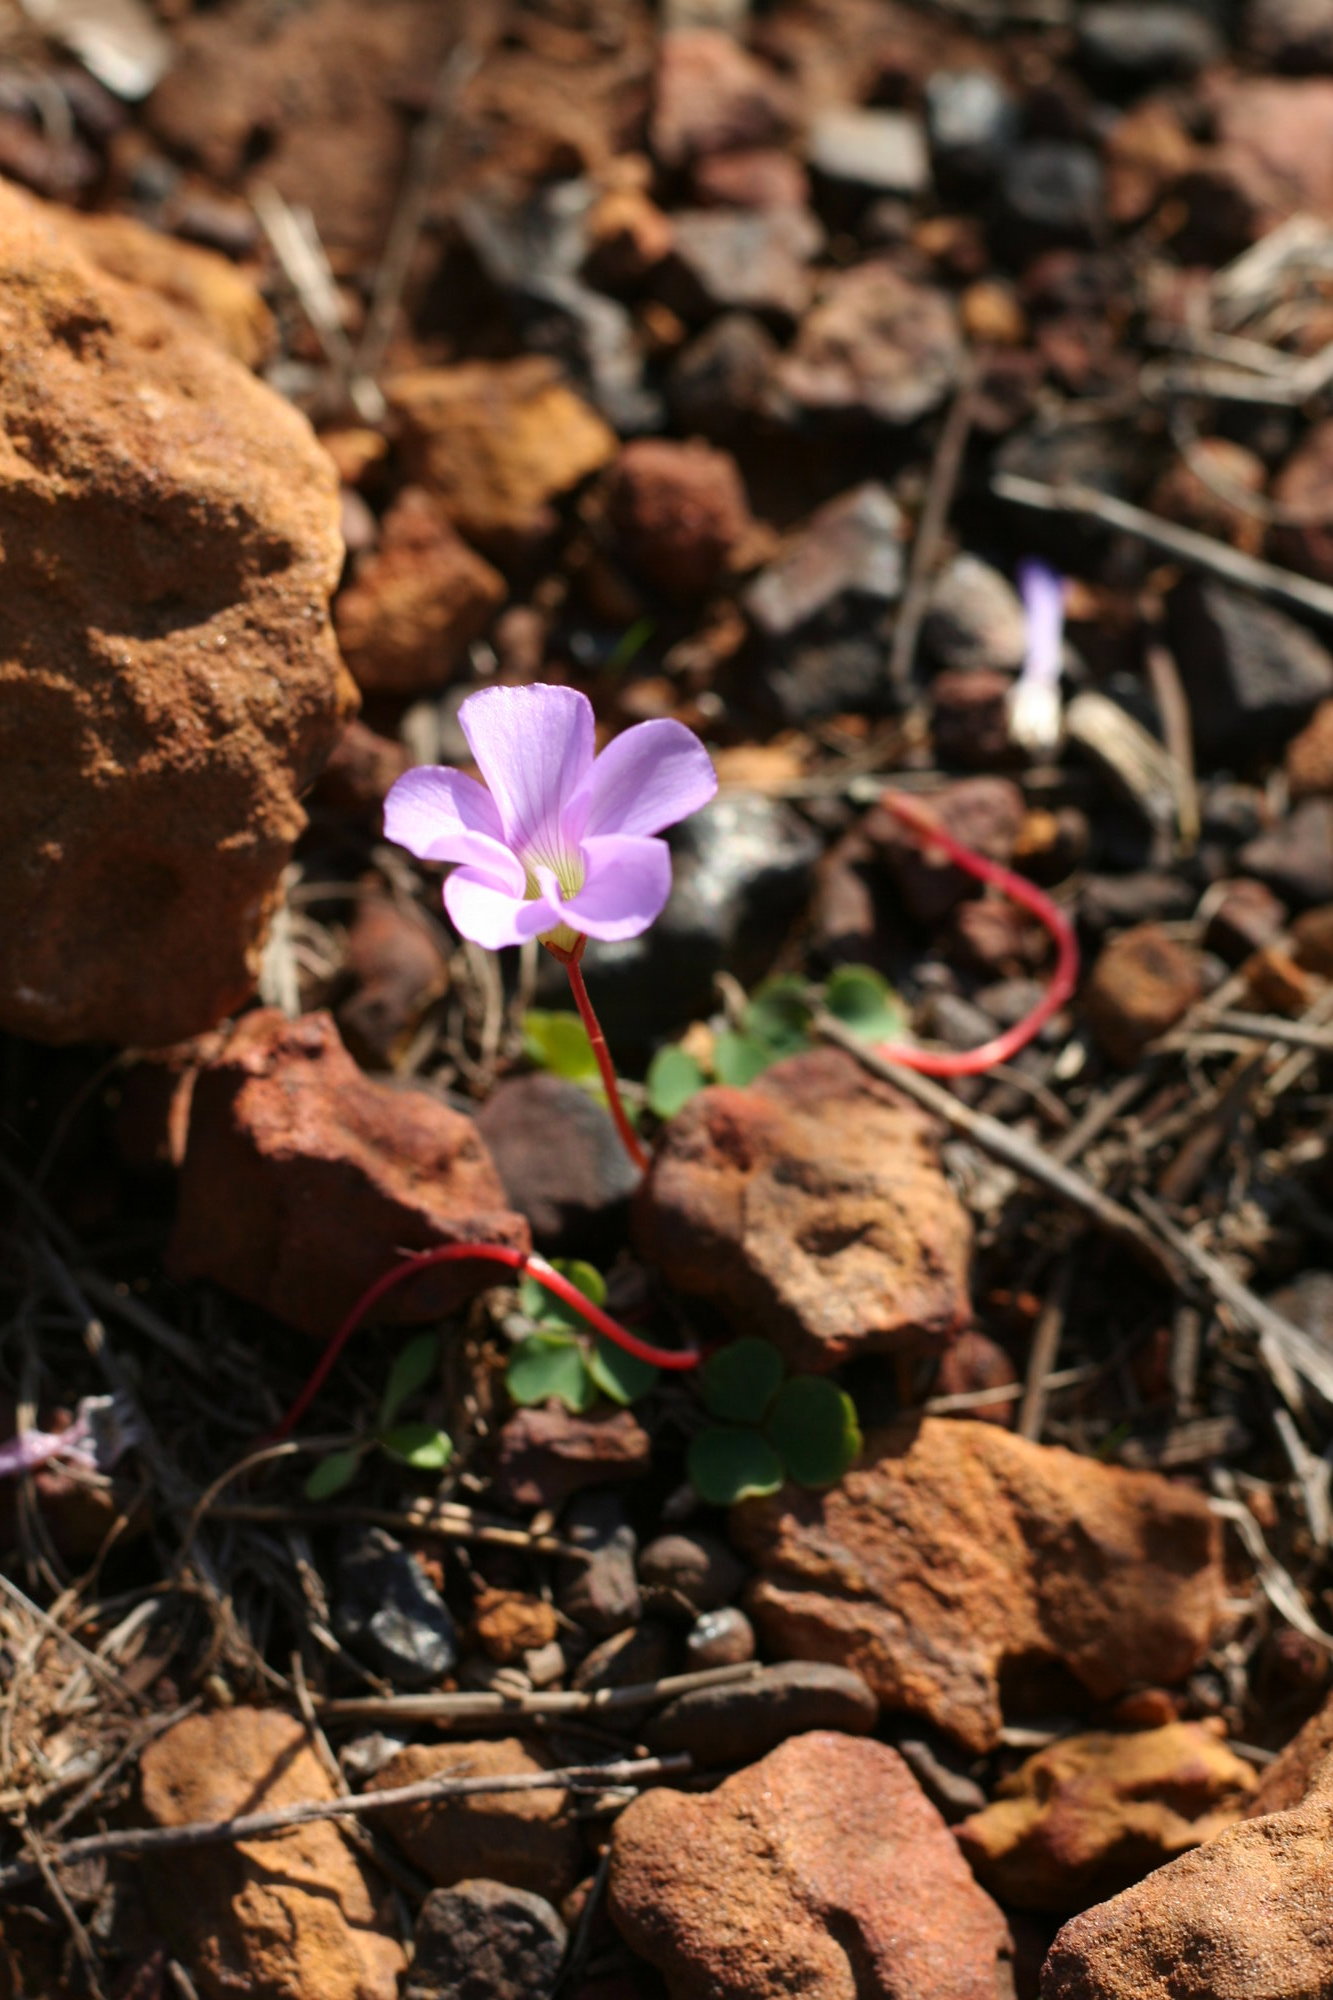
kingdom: Plantae
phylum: Tracheophyta
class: Magnoliopsida
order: Oxalidales
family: Oxalidaceae
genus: Oxalis
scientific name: Oxalis commutata
